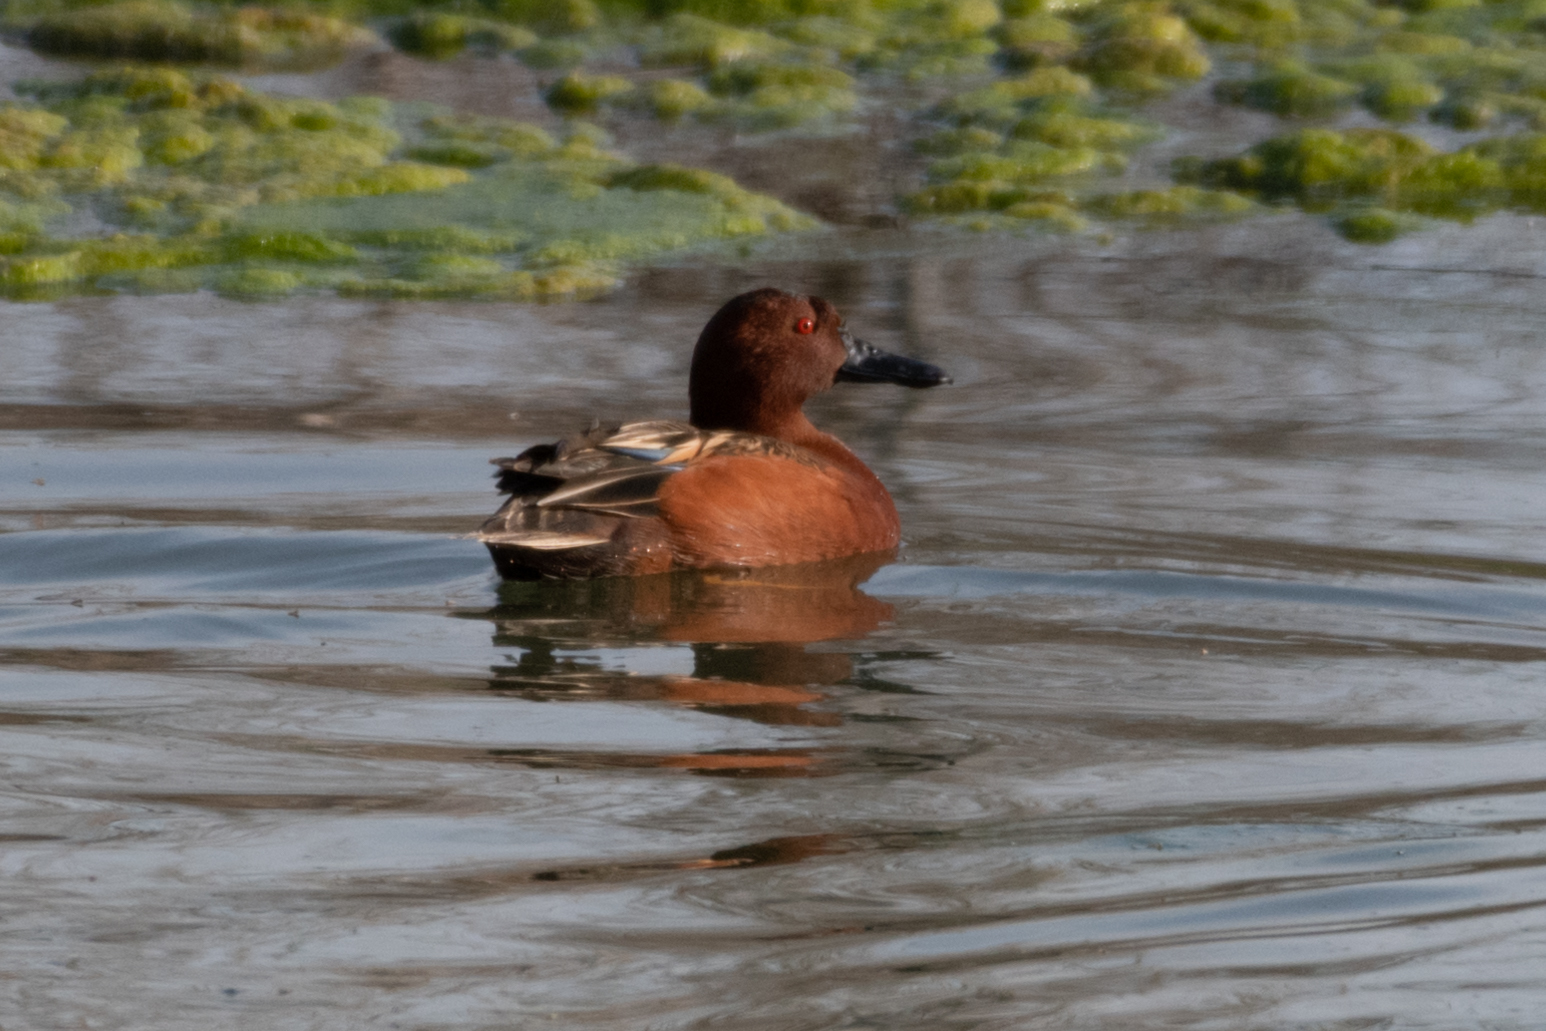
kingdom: Animalia
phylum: Chordata
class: Aves
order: Anseriformes
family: Anatidae
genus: Spatula
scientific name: Spatula cyanoptera
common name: Cinnamon teal
